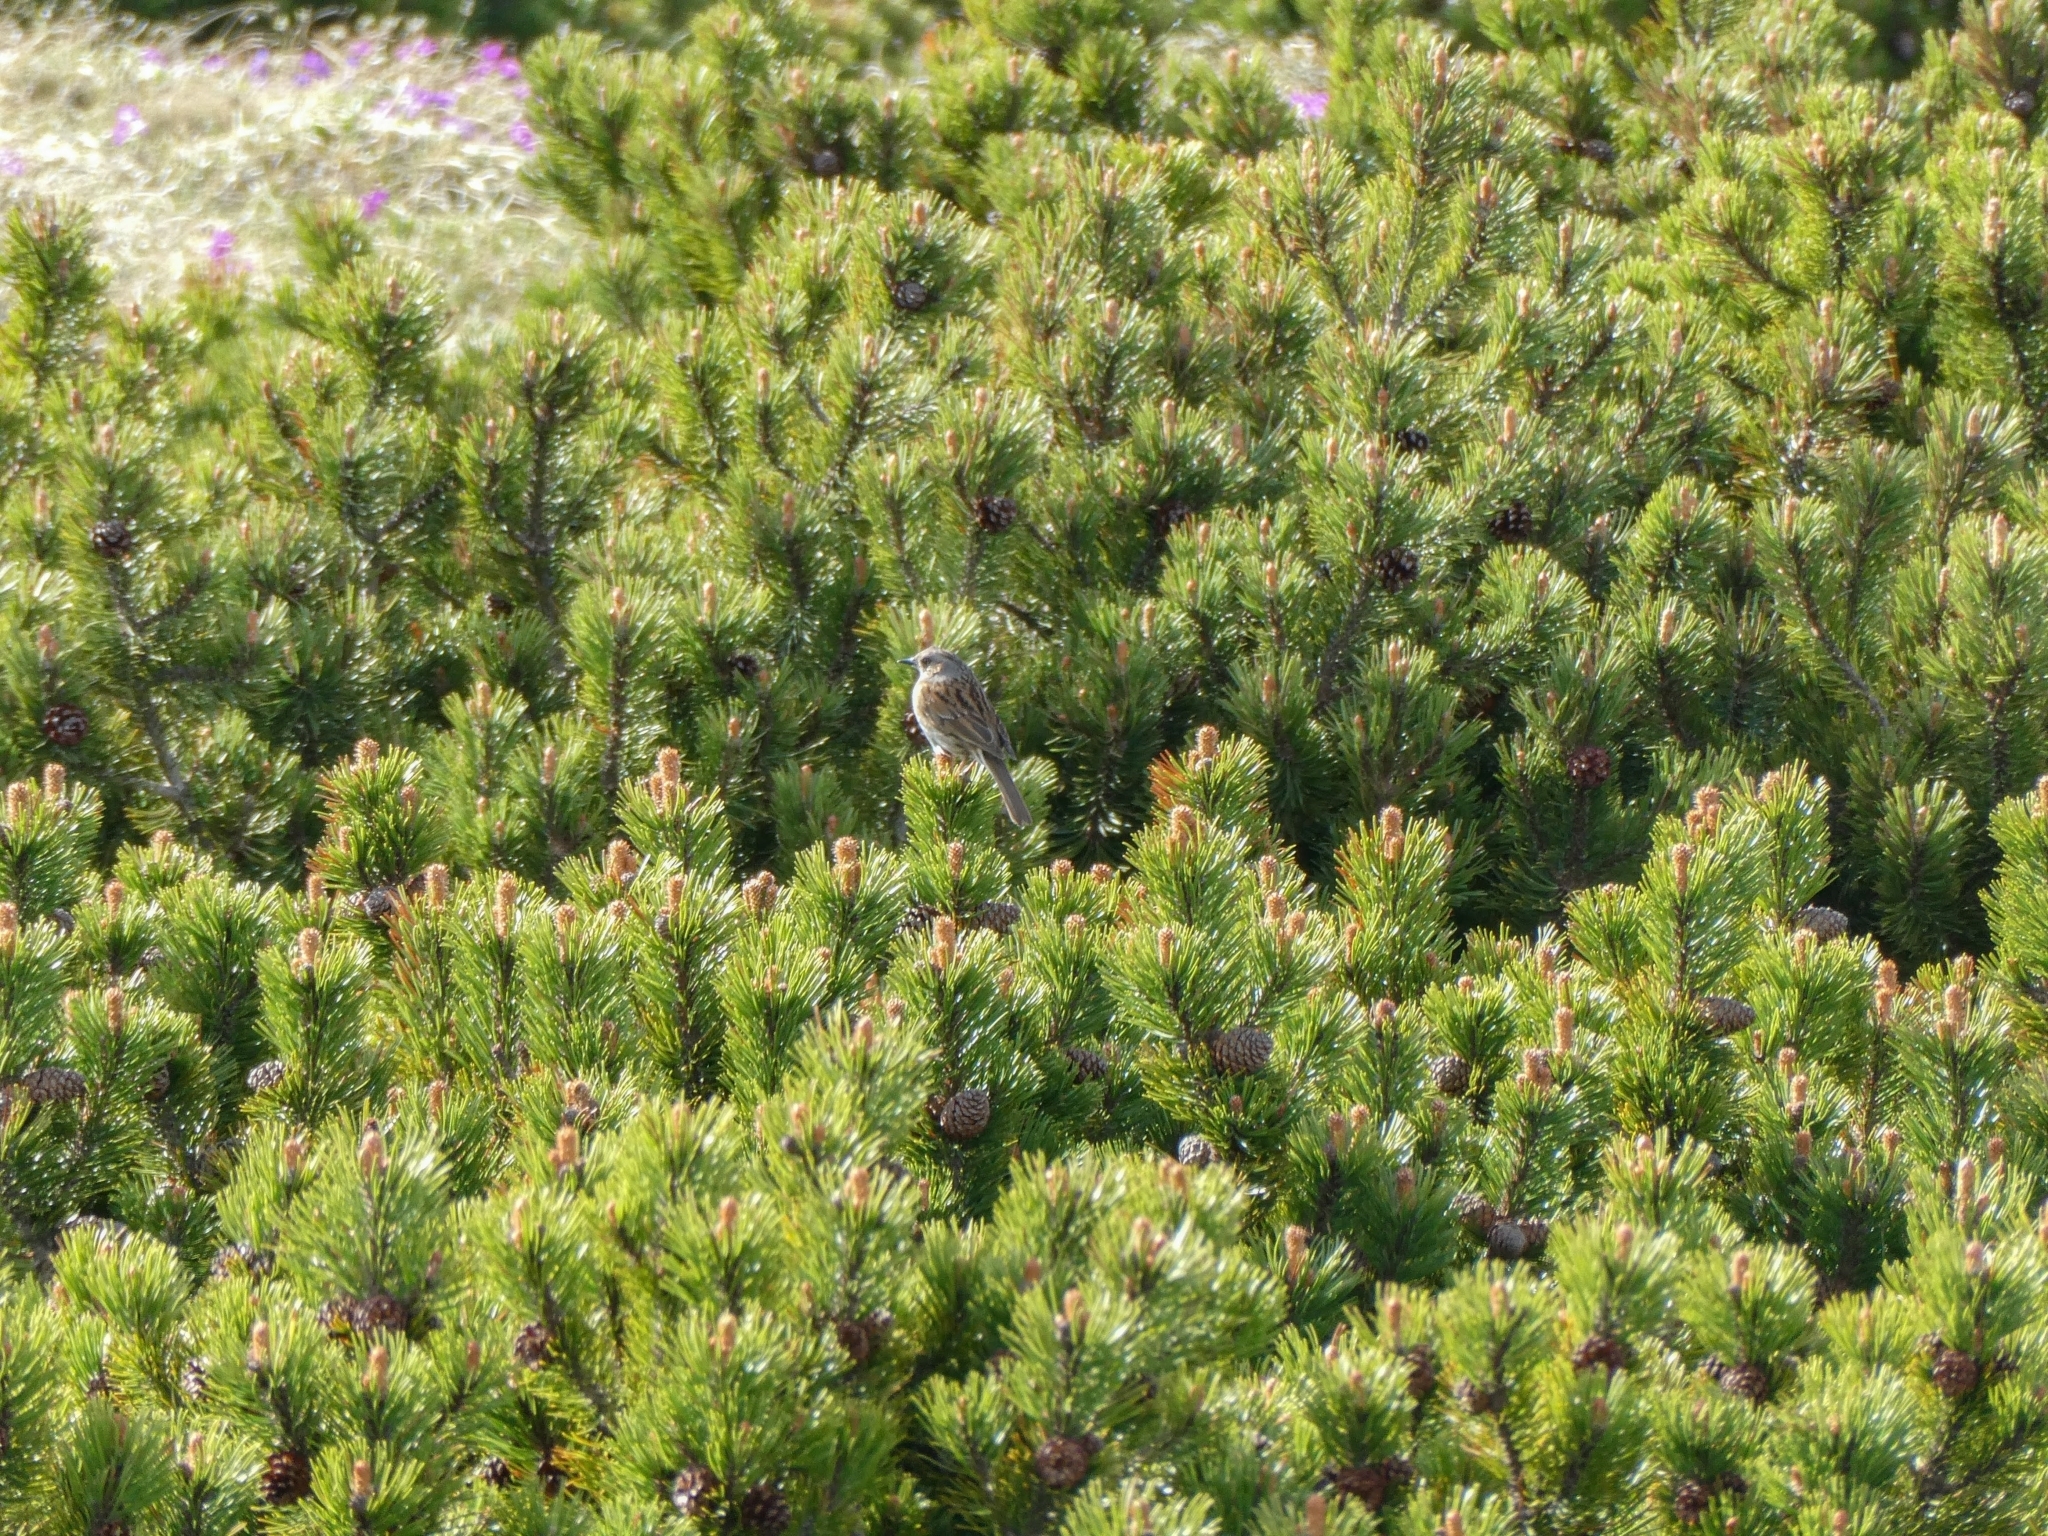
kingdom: Animalia
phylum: Chordata
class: Aves
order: Passeriformes
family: Prunellidae
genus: Prunella
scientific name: Prunella modularis
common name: Dunnock
